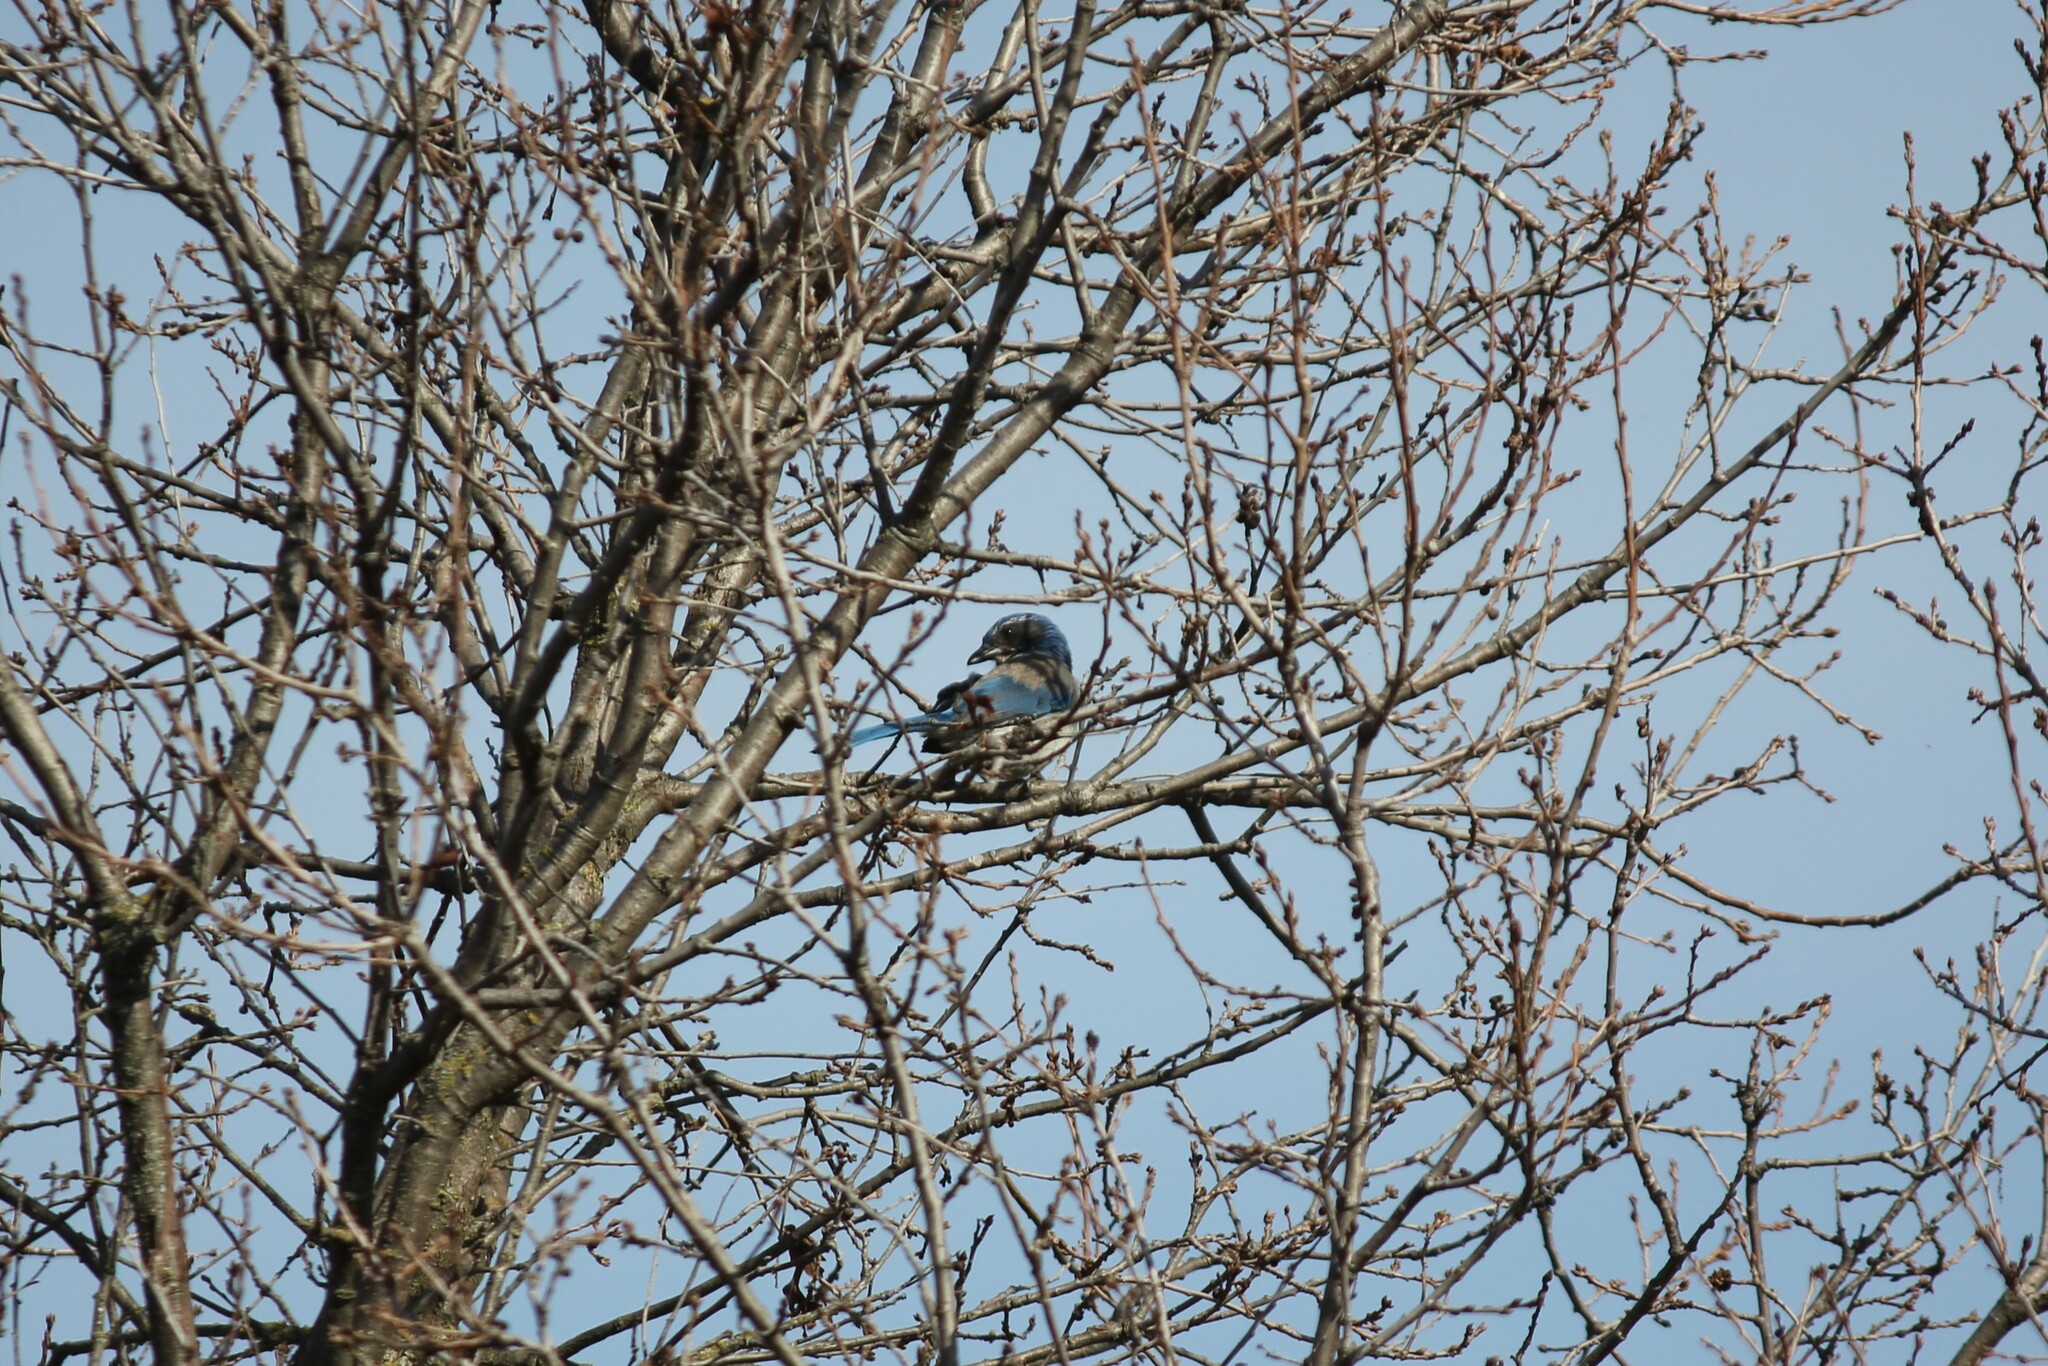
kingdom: Animalia
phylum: Chordata
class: Aves
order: Passeriformes
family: Corvidae
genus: Aphelocoma
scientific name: Aphelocoma californica
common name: California scrub-jay
